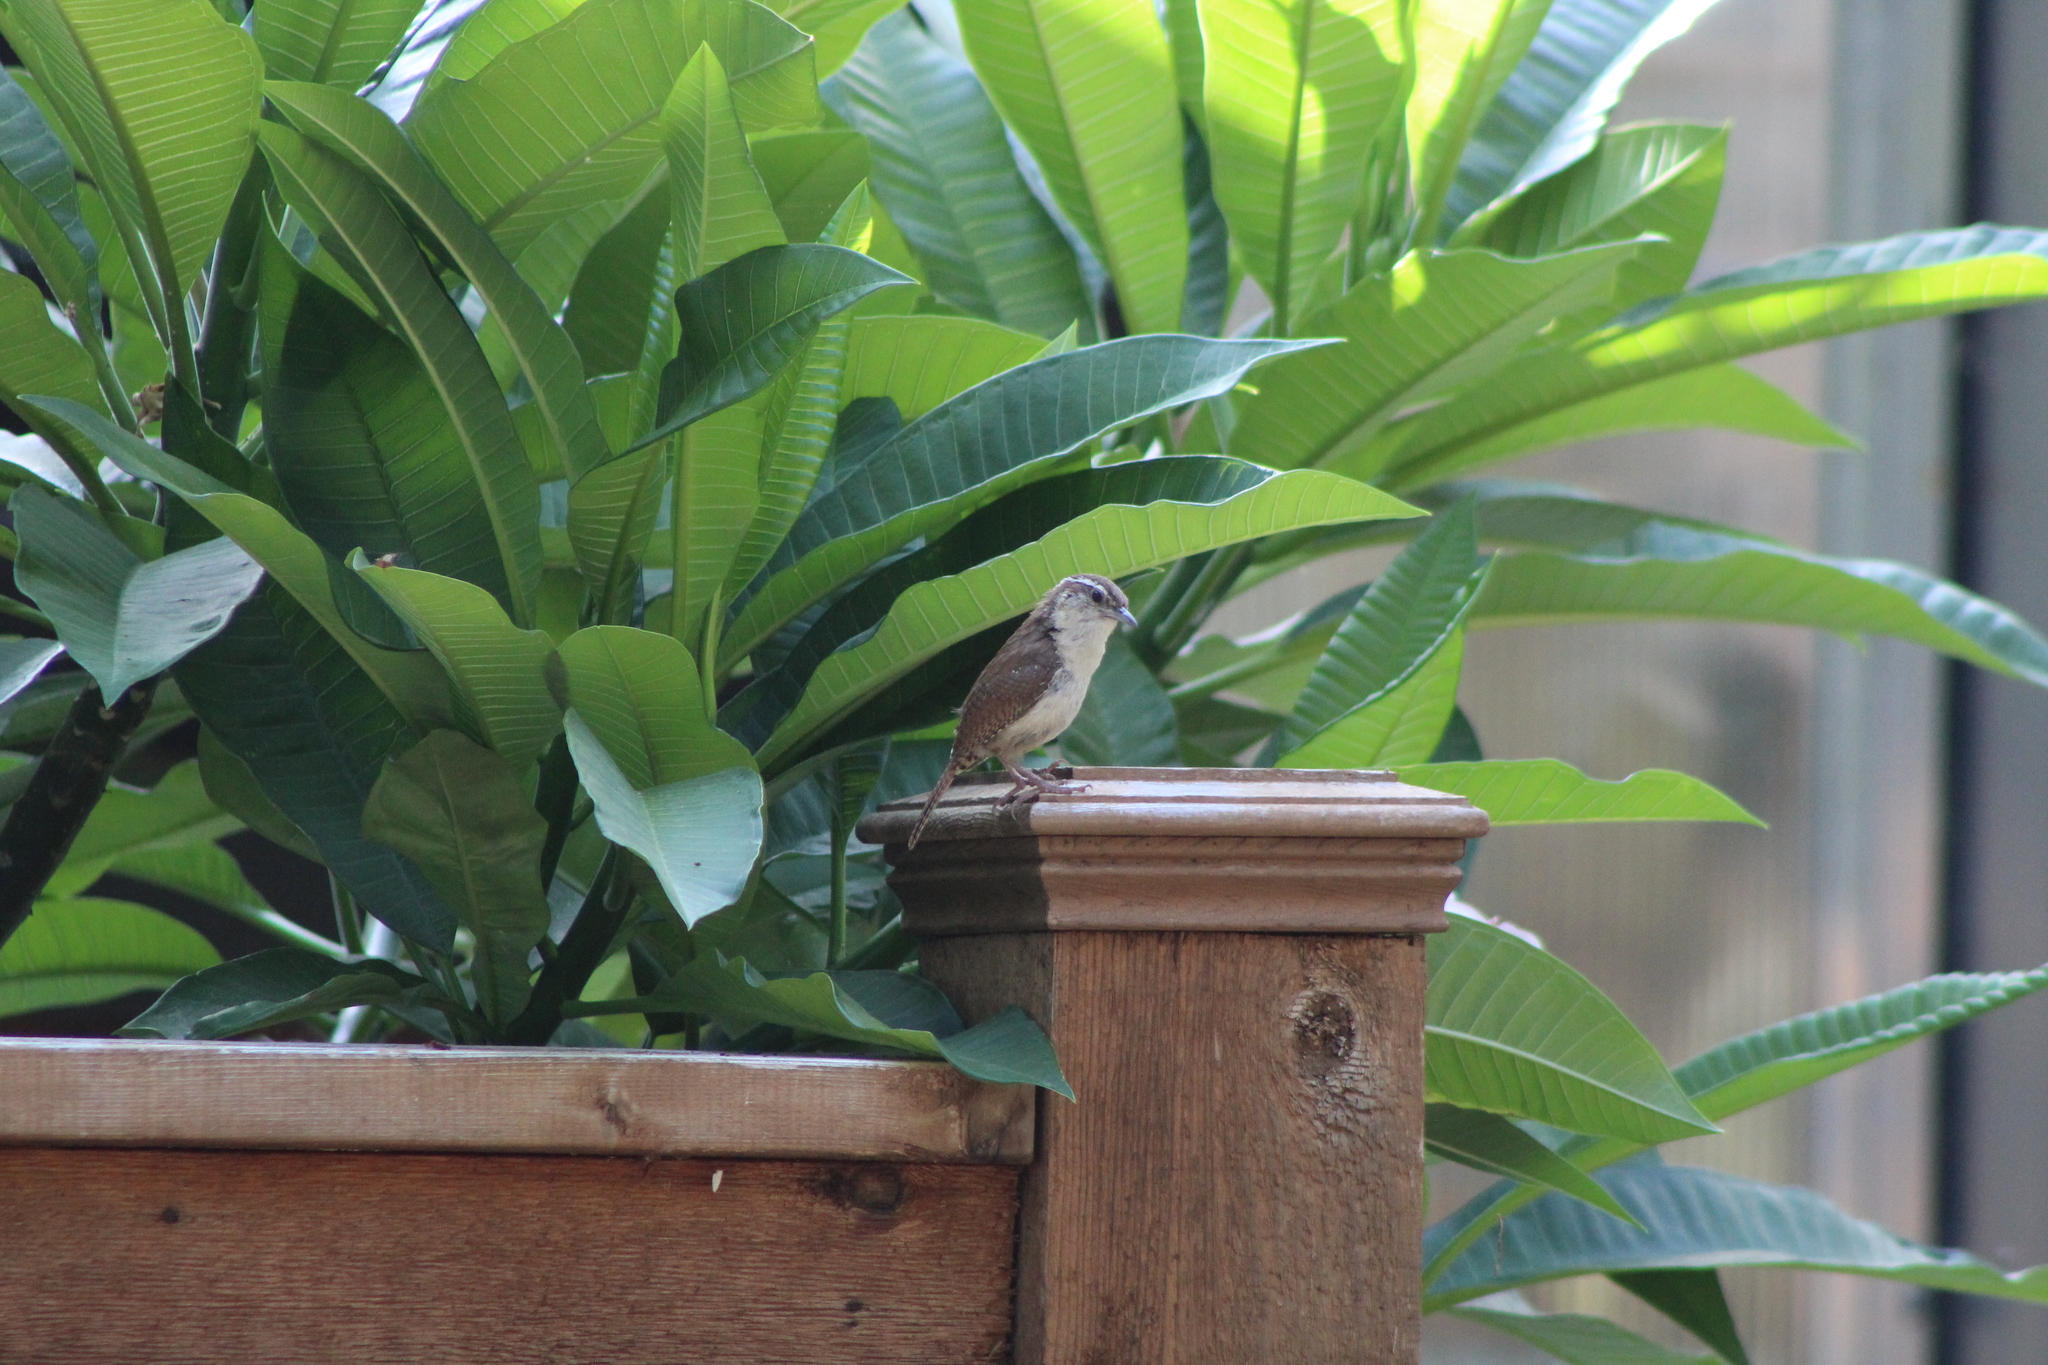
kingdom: Animalia
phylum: Chordata
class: Aves
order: Passeriformes
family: Troglodytidae
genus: Thryothorus
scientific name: Thryothorus ludovicianus
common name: Carolina wren
